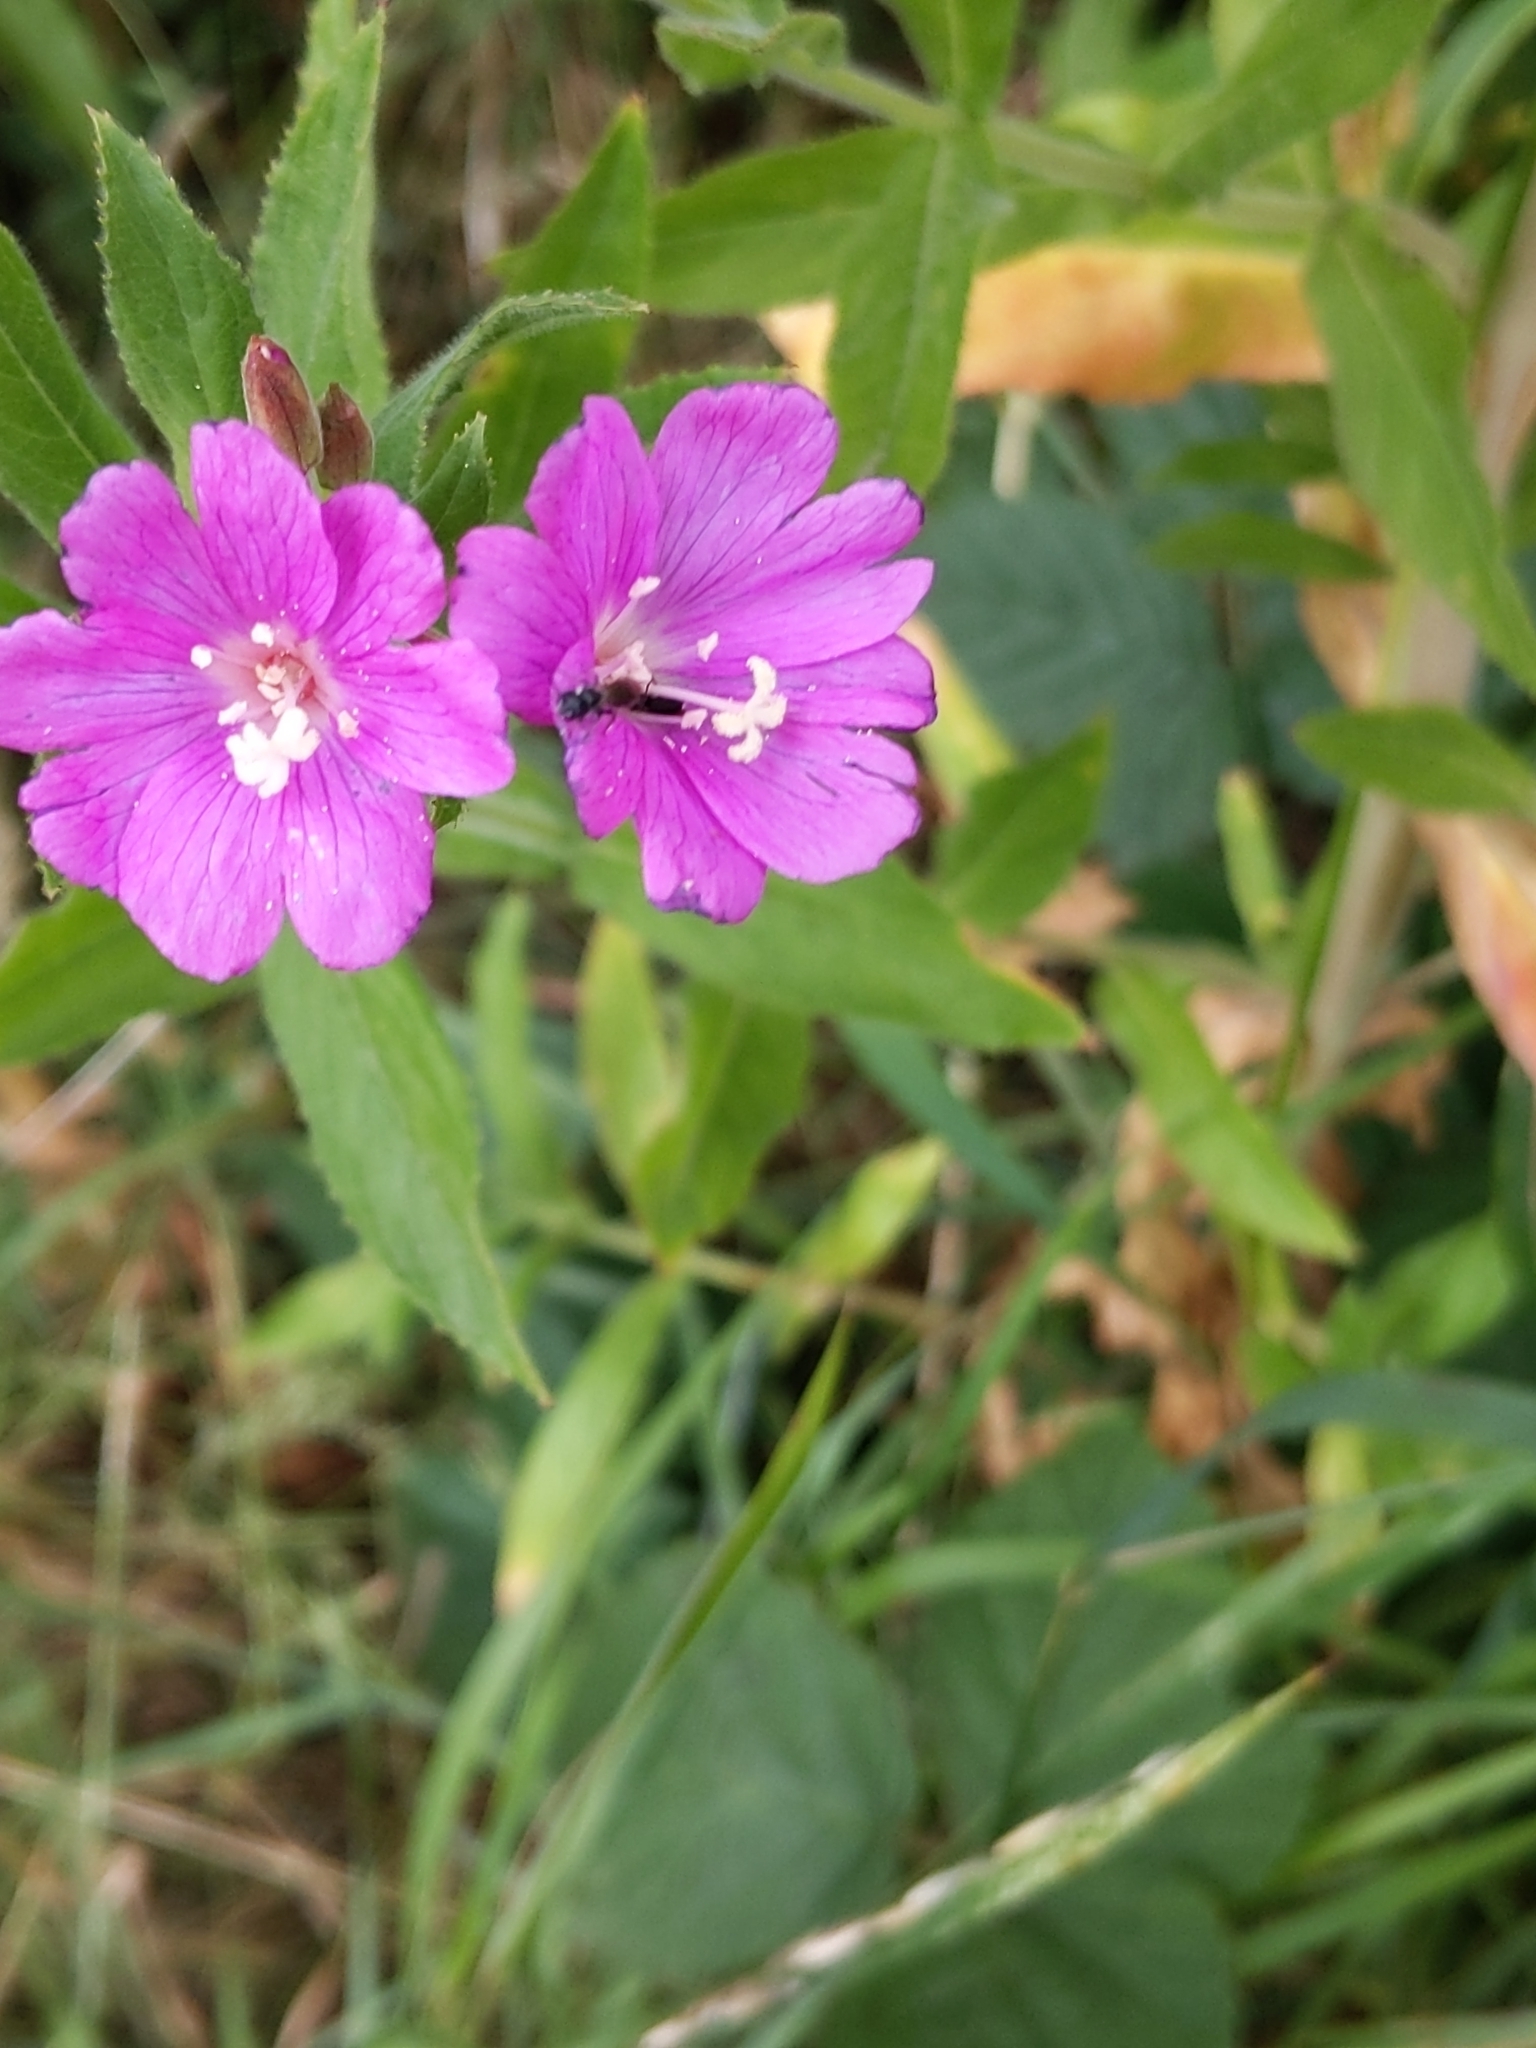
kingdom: Plantae
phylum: Tracheophyta
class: Magnoliopsida
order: Myrtales
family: Onagraceae
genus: Epilobium
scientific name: Epilobium hirsutum
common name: Great willowherb
